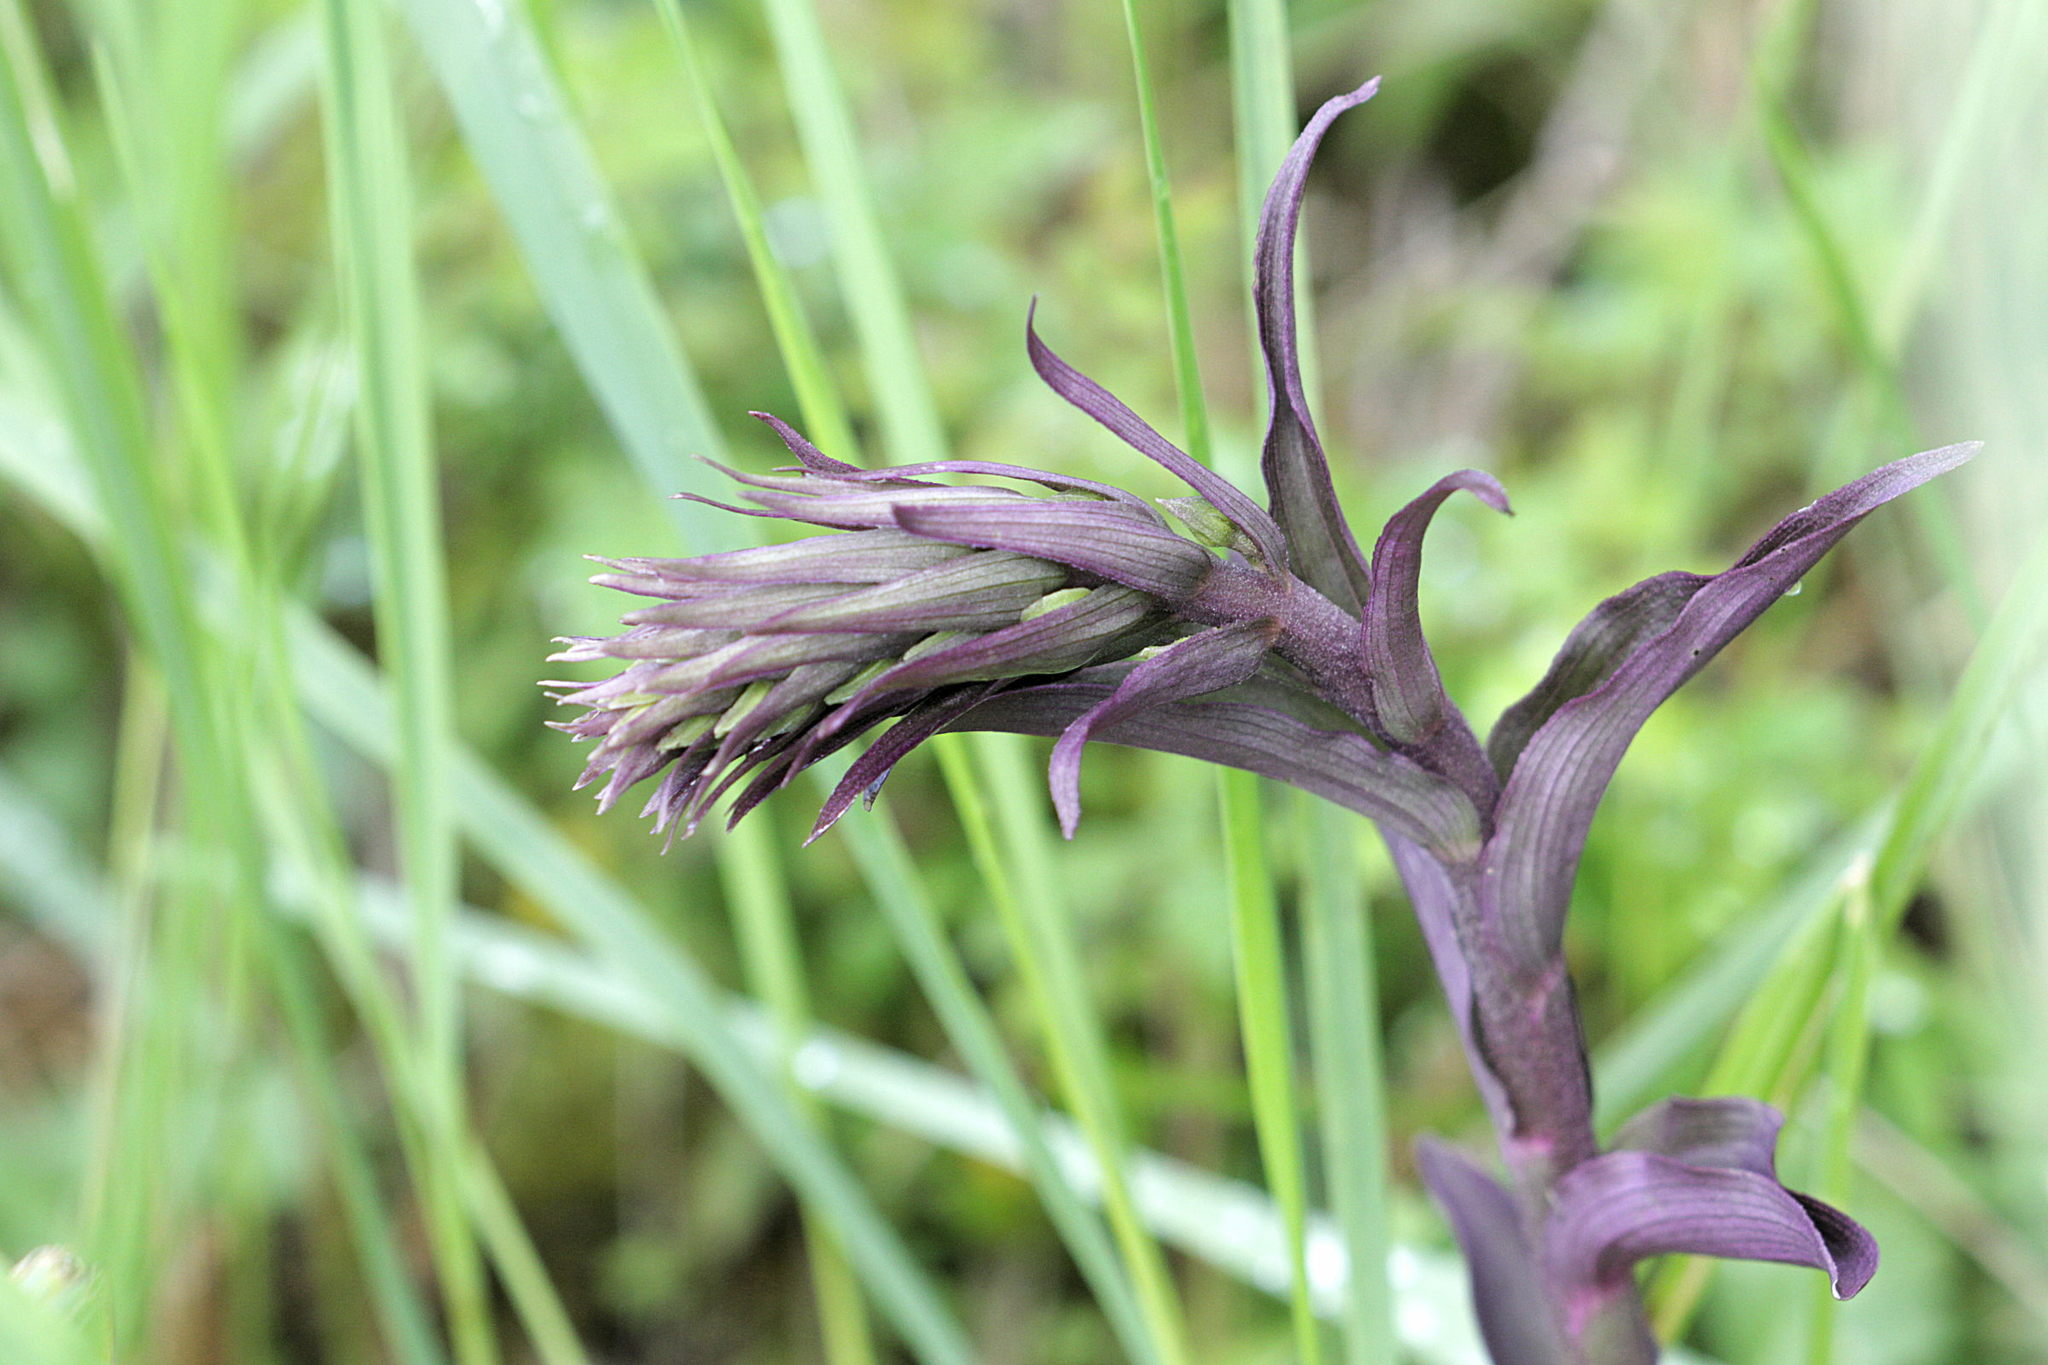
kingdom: Plantae
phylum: Tracheophyta
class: Liliopsida
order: Asparagales
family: Orchidaceae
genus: Epipactis
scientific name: Epipactis purpurata
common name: Violet helleborine
